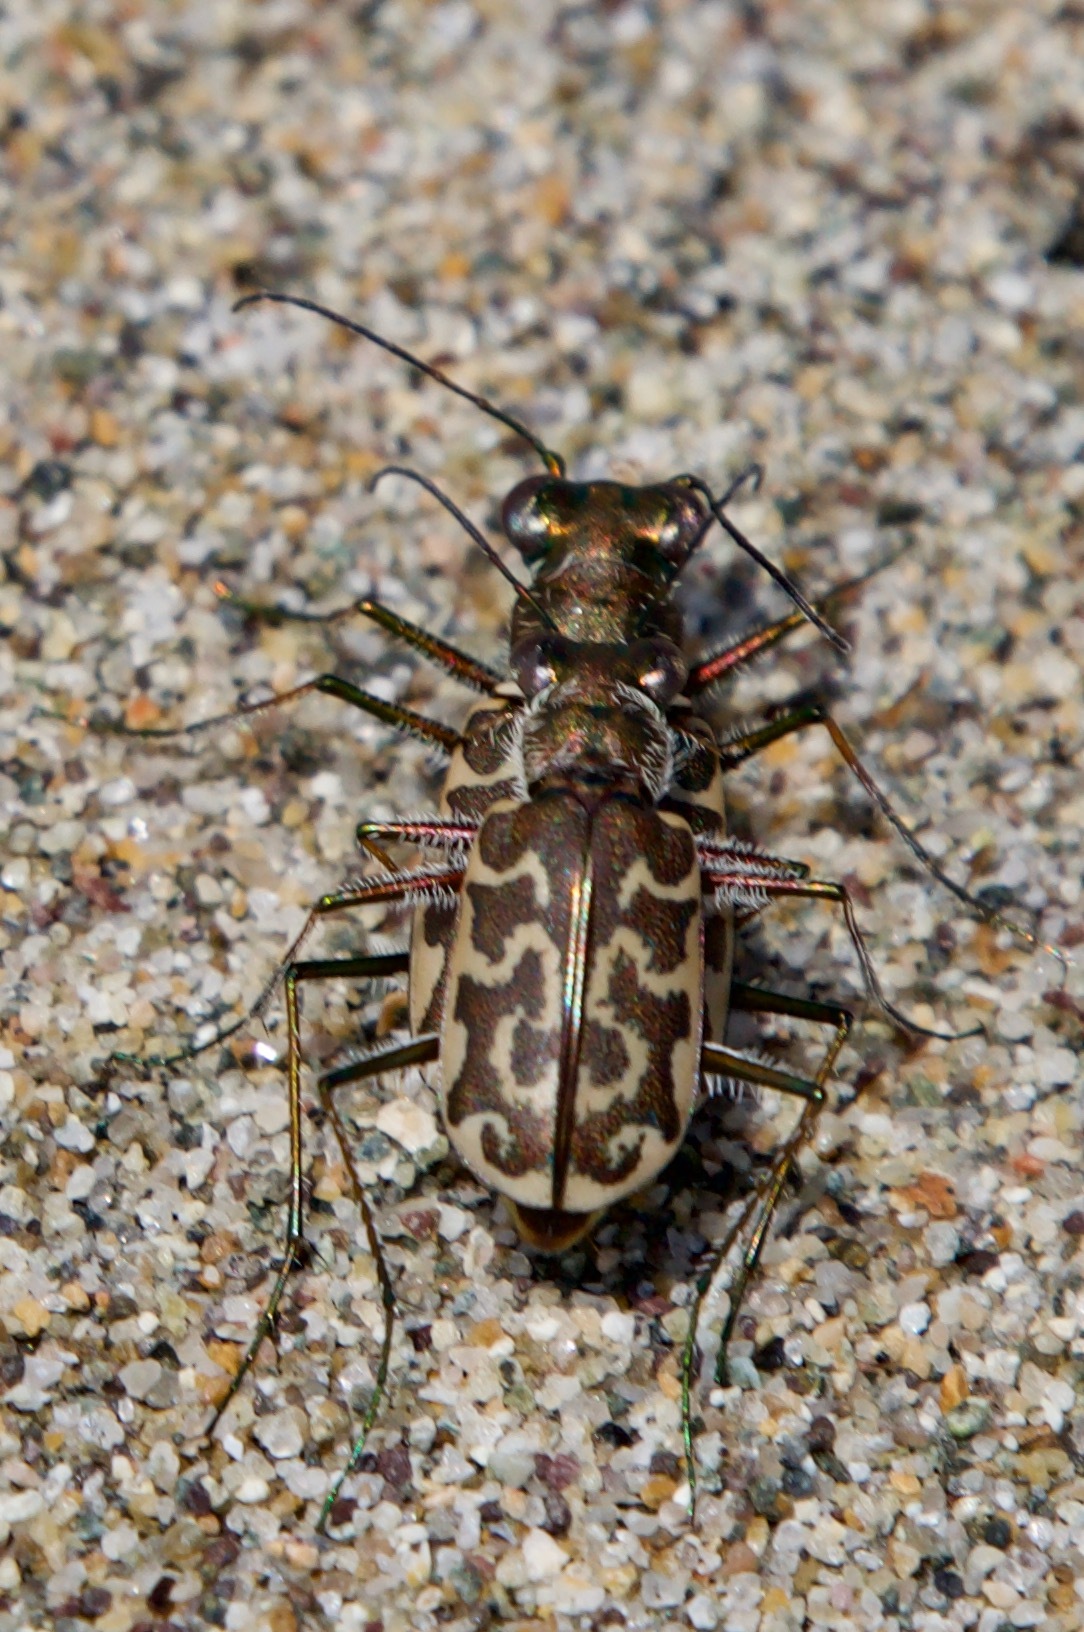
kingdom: Animalia
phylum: Arthropoda
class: Insecta
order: Coleoptera
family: Carabidae
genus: Cicindela
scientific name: Cicindela trifasciata
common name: Mudflat tiger beetle
